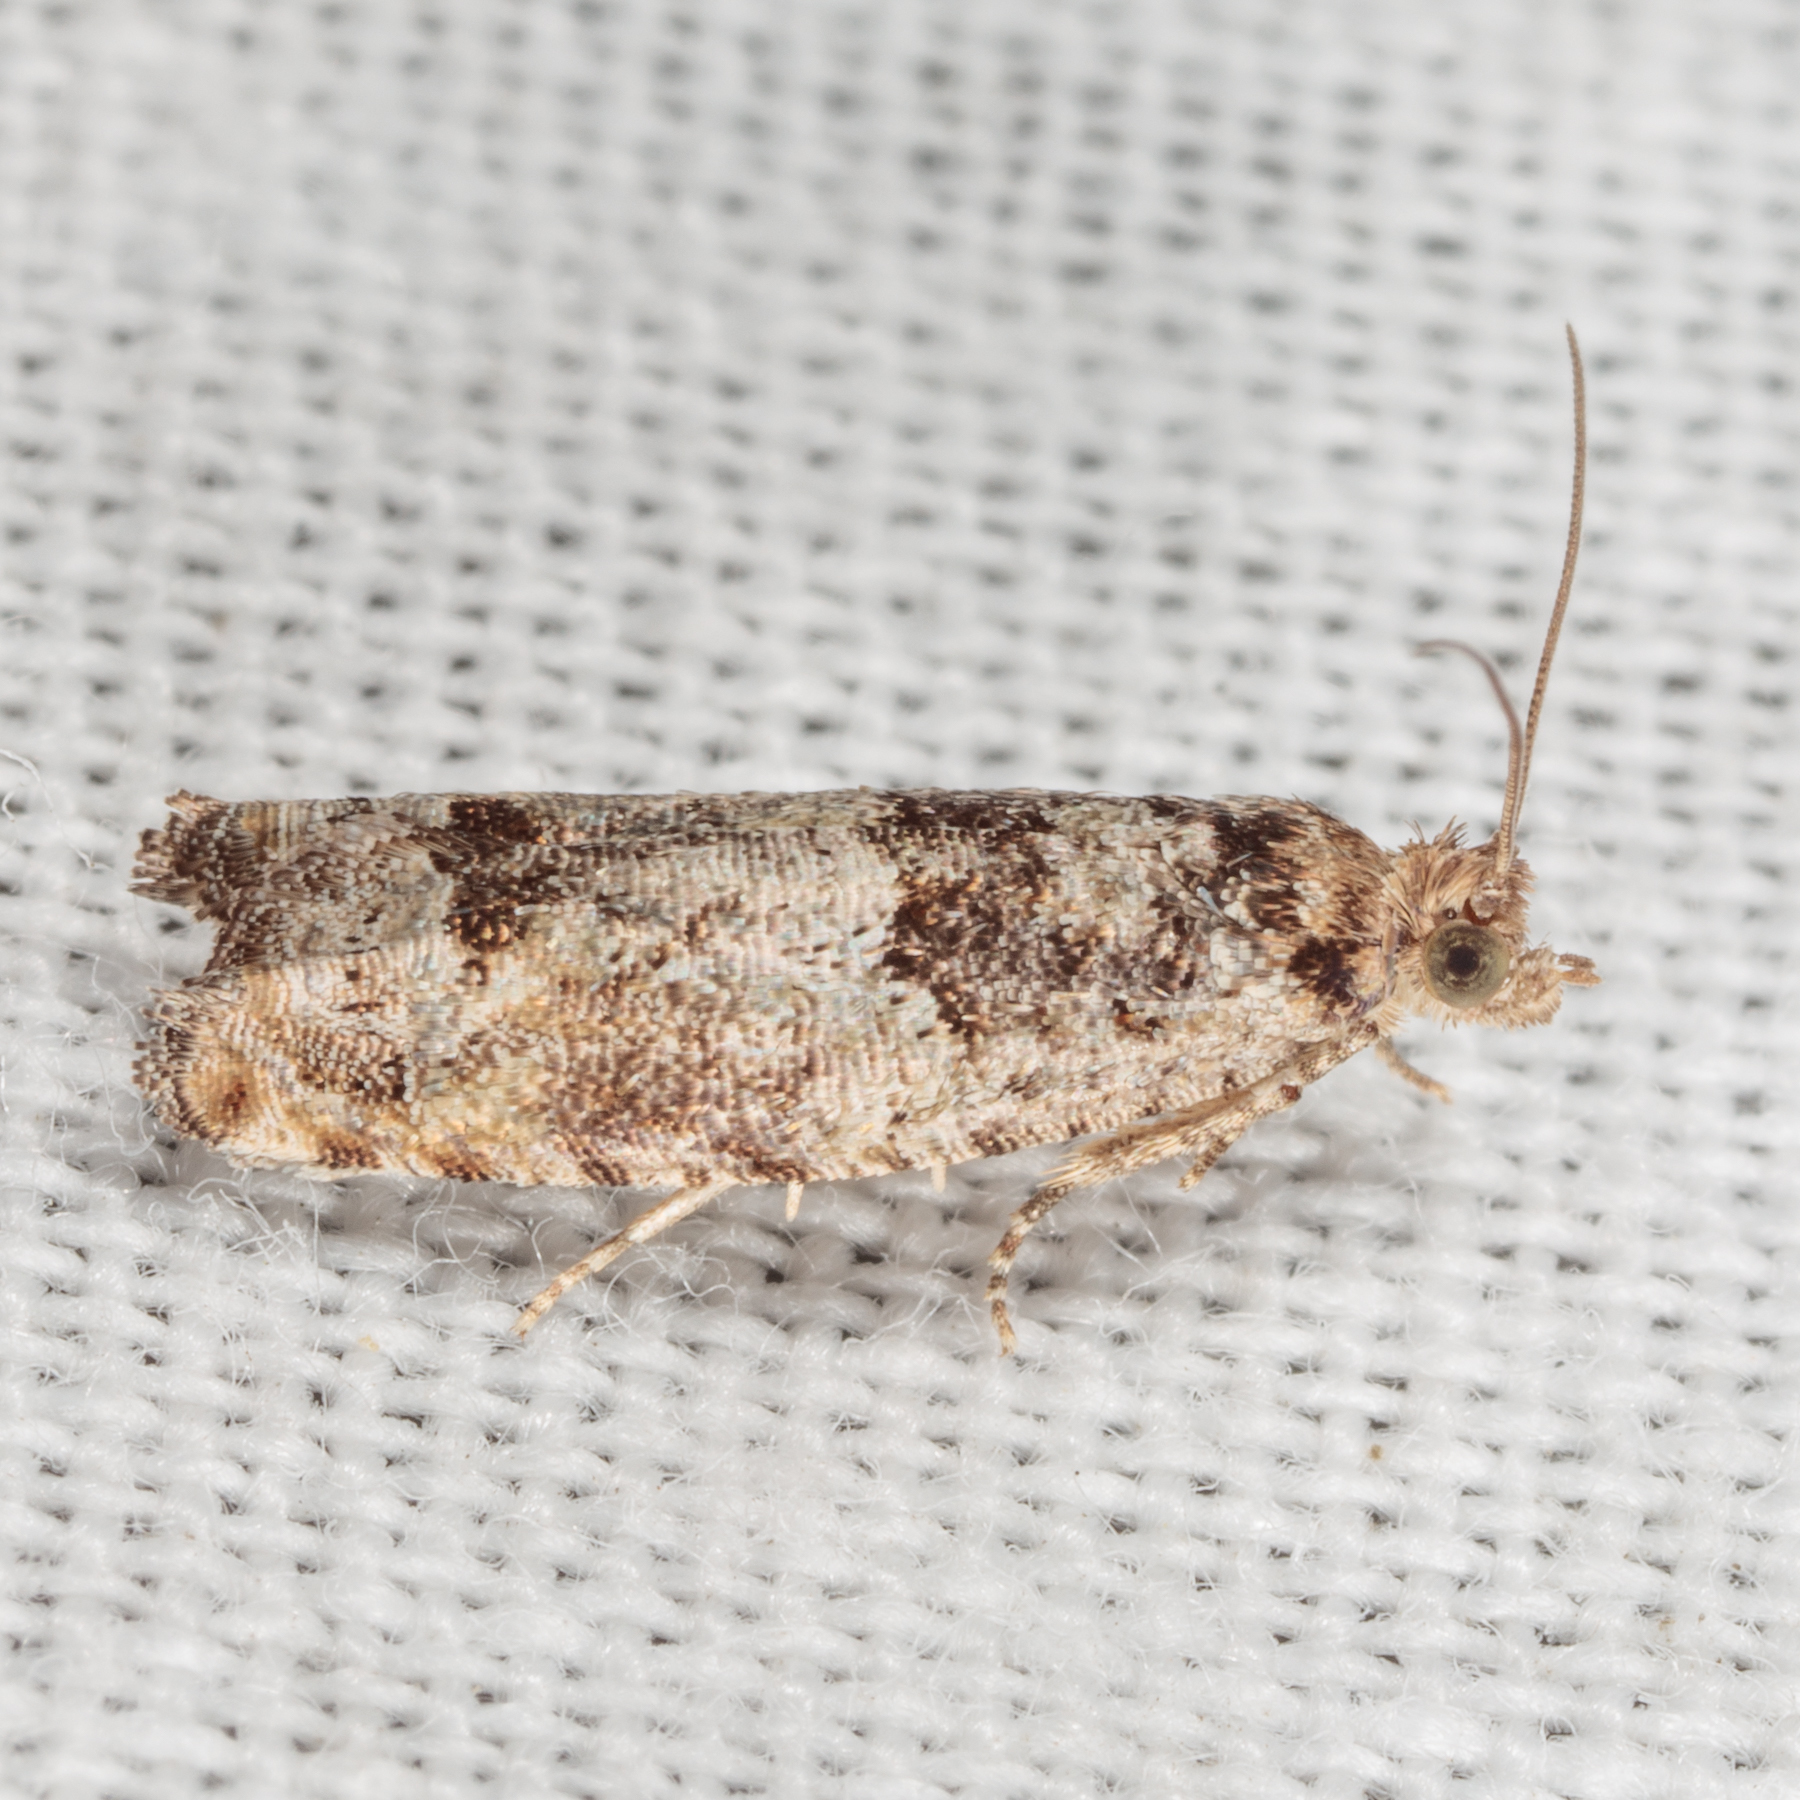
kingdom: Animalia
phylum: Arthropoda
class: Insecta
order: Lepidoptera
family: Tortricidae
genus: Pseudexentera
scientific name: Pseudexentera knudsoni
